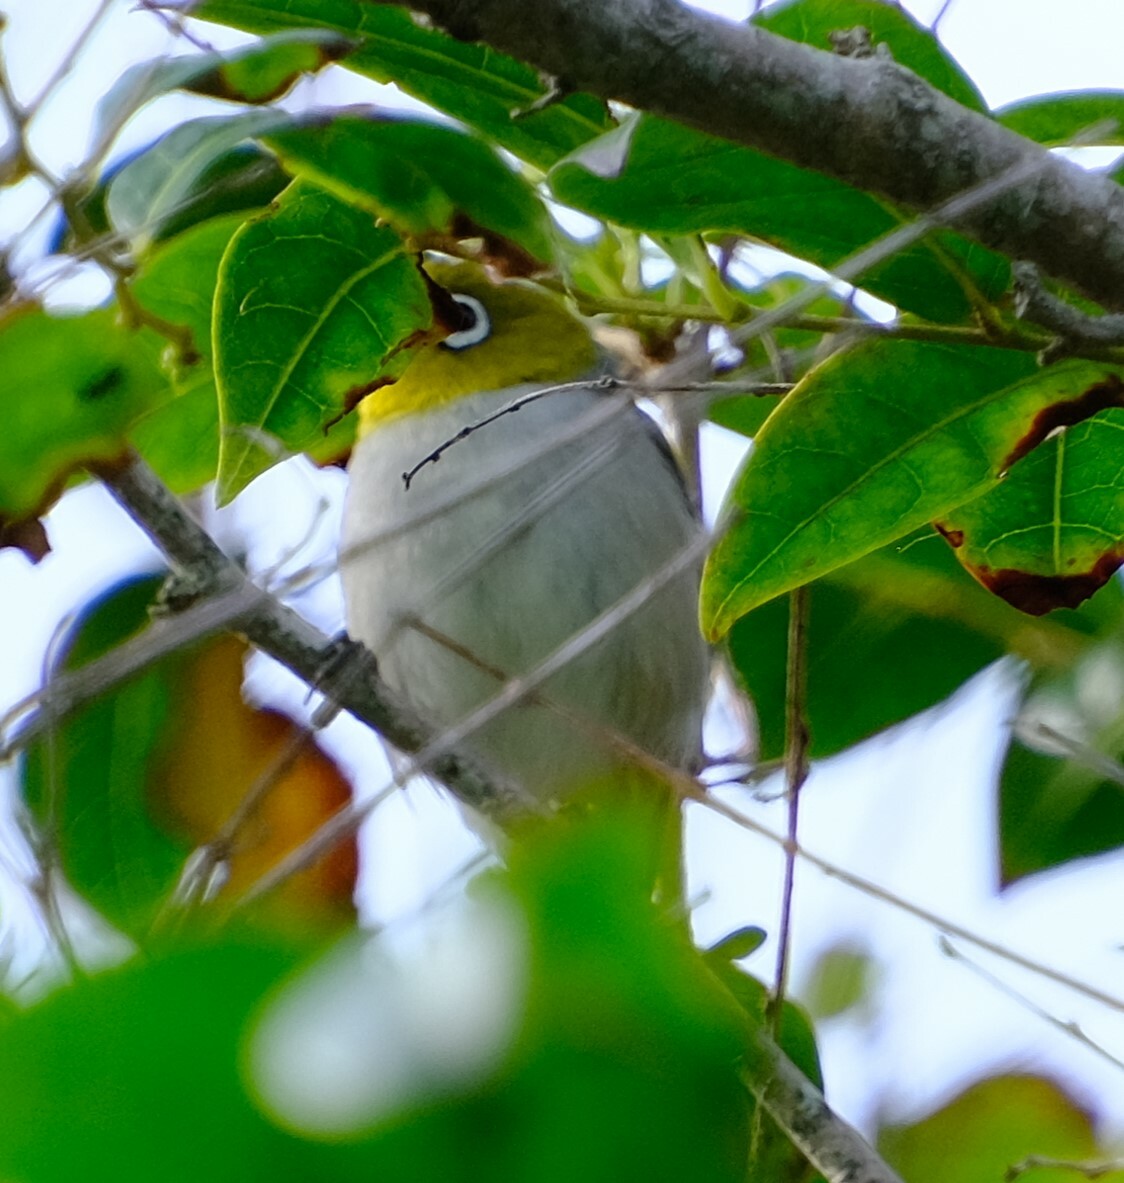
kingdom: Animalia
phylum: Chordata
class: Aves
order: Passeriformes
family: Zosteropidae
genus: Zosterops
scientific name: Zosterops lateralis
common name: Silvereye
